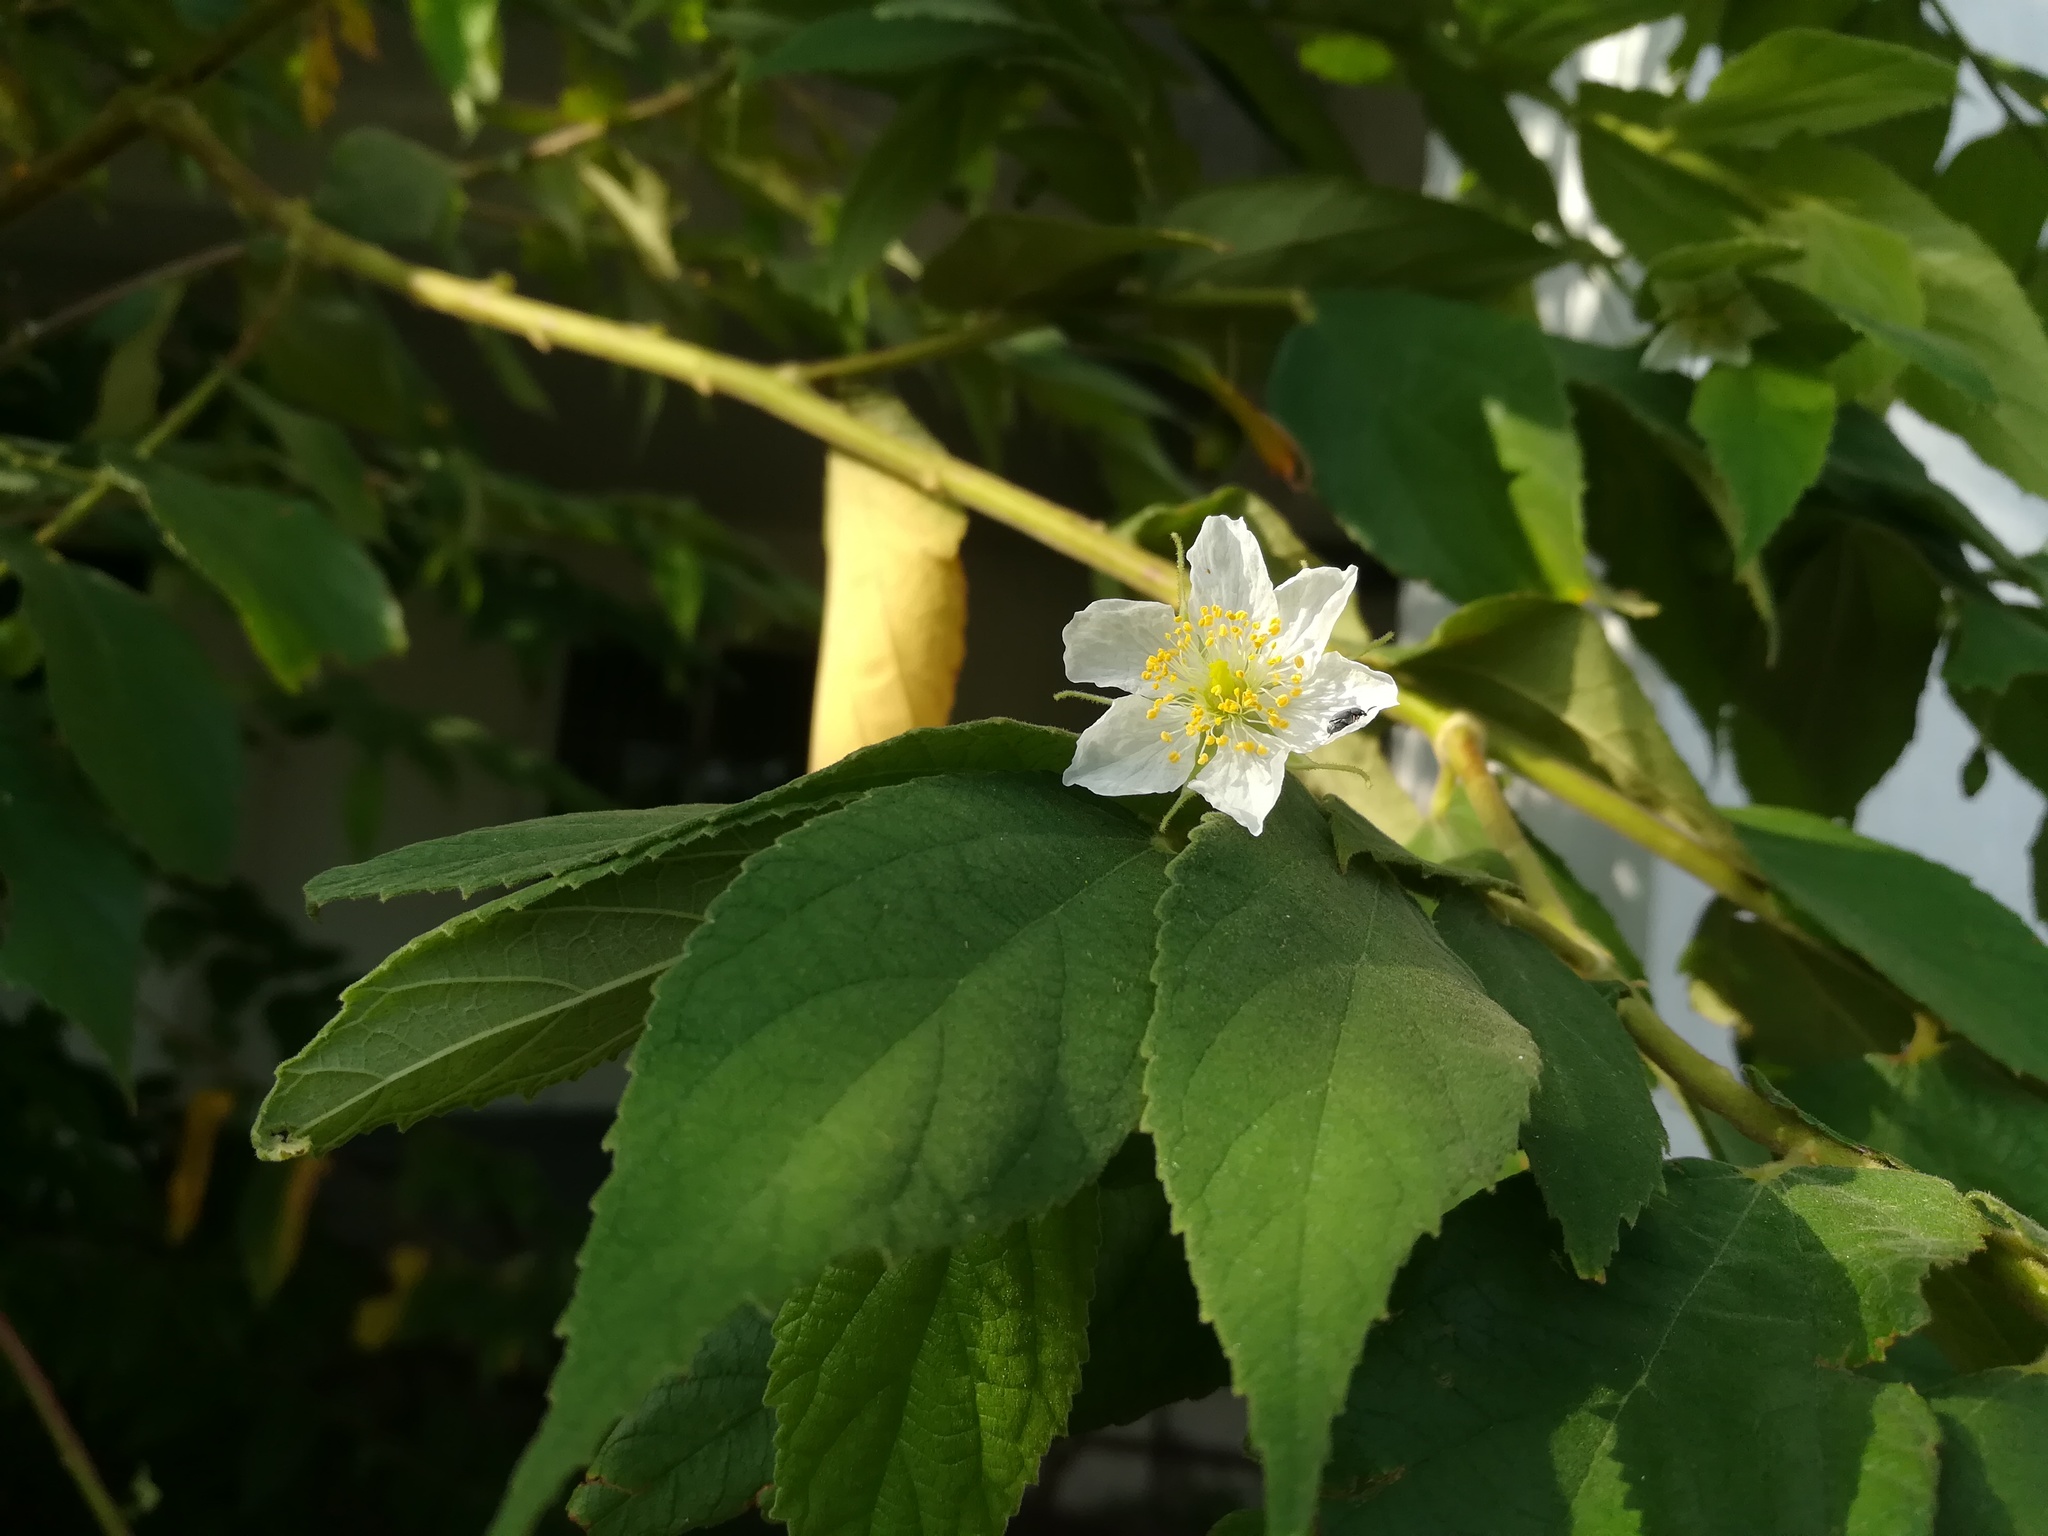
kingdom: Plantae
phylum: Tracheophyta
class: Magnoliopsida
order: Malvales
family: Muntingiaceae
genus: Muntingia
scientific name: Muntingia calabura
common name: Strawberrytree
